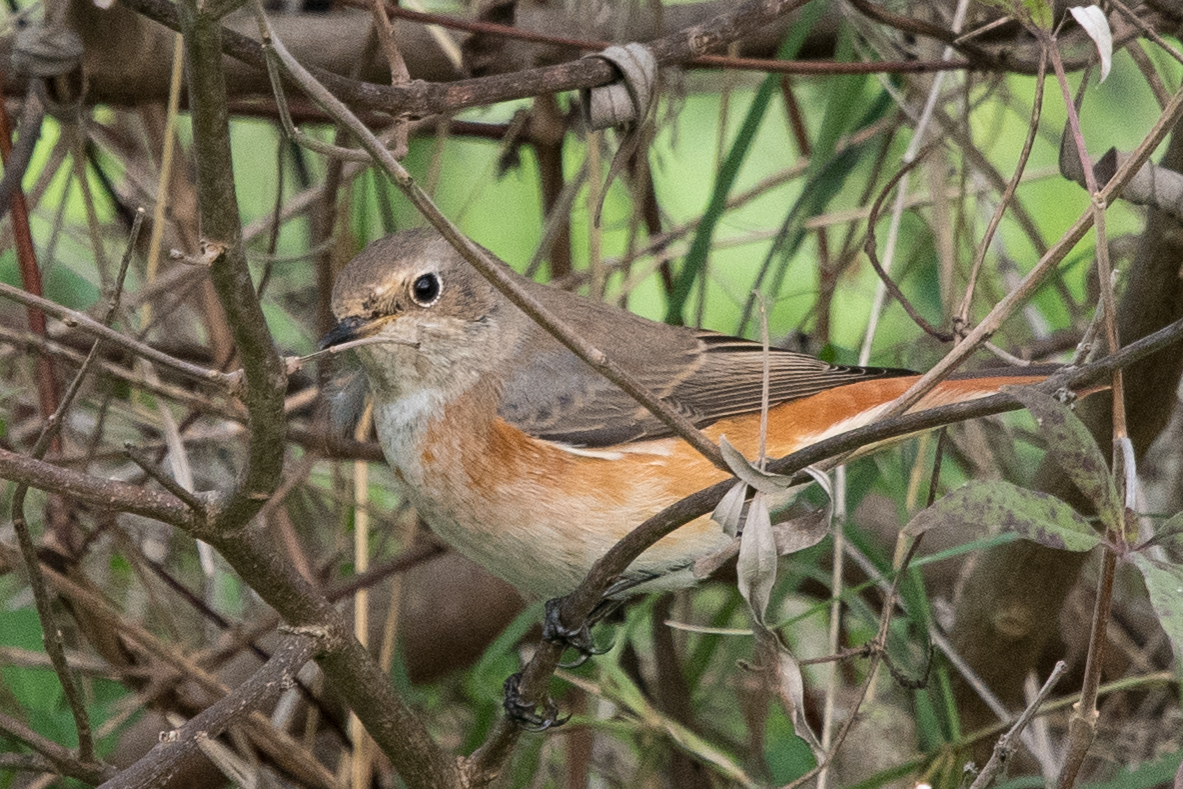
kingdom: Animalia
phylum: Chordata
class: Aves
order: Passeriformes
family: Muscicapidae
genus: Phoenicurus
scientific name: Phoenicurus phoenicurus
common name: Common redstart
